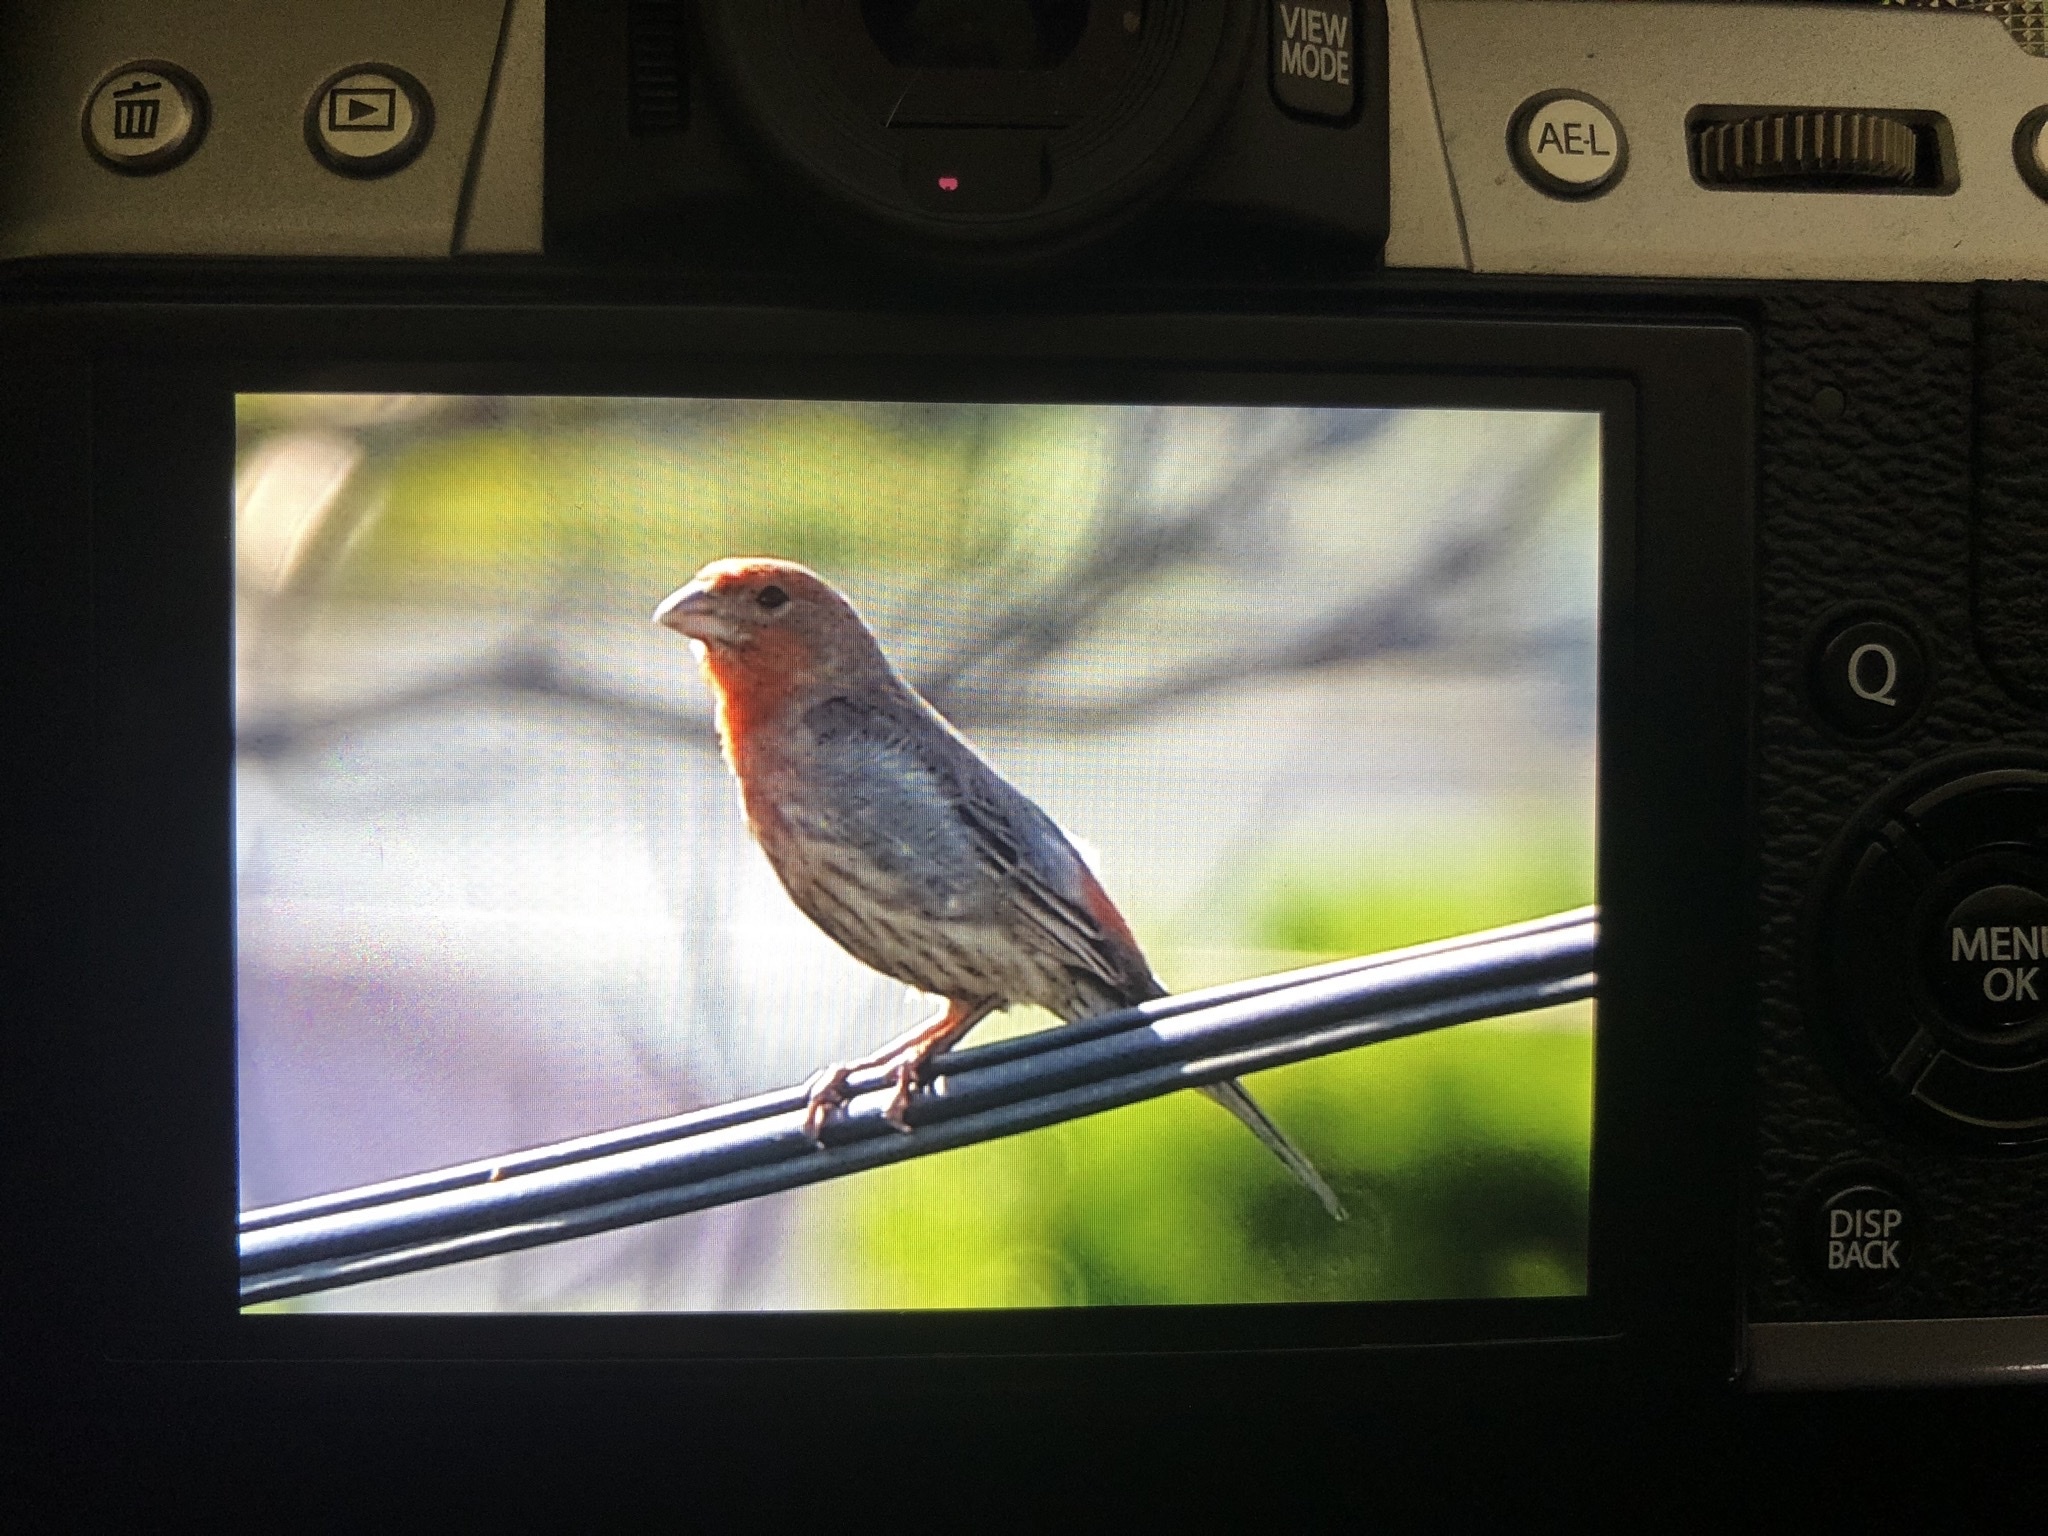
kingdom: Animalia
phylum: Chordata
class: Aves
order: Passeriformes
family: Fringillidae
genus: Haemorhous
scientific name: Haemorhous mexicanus
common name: House finch
